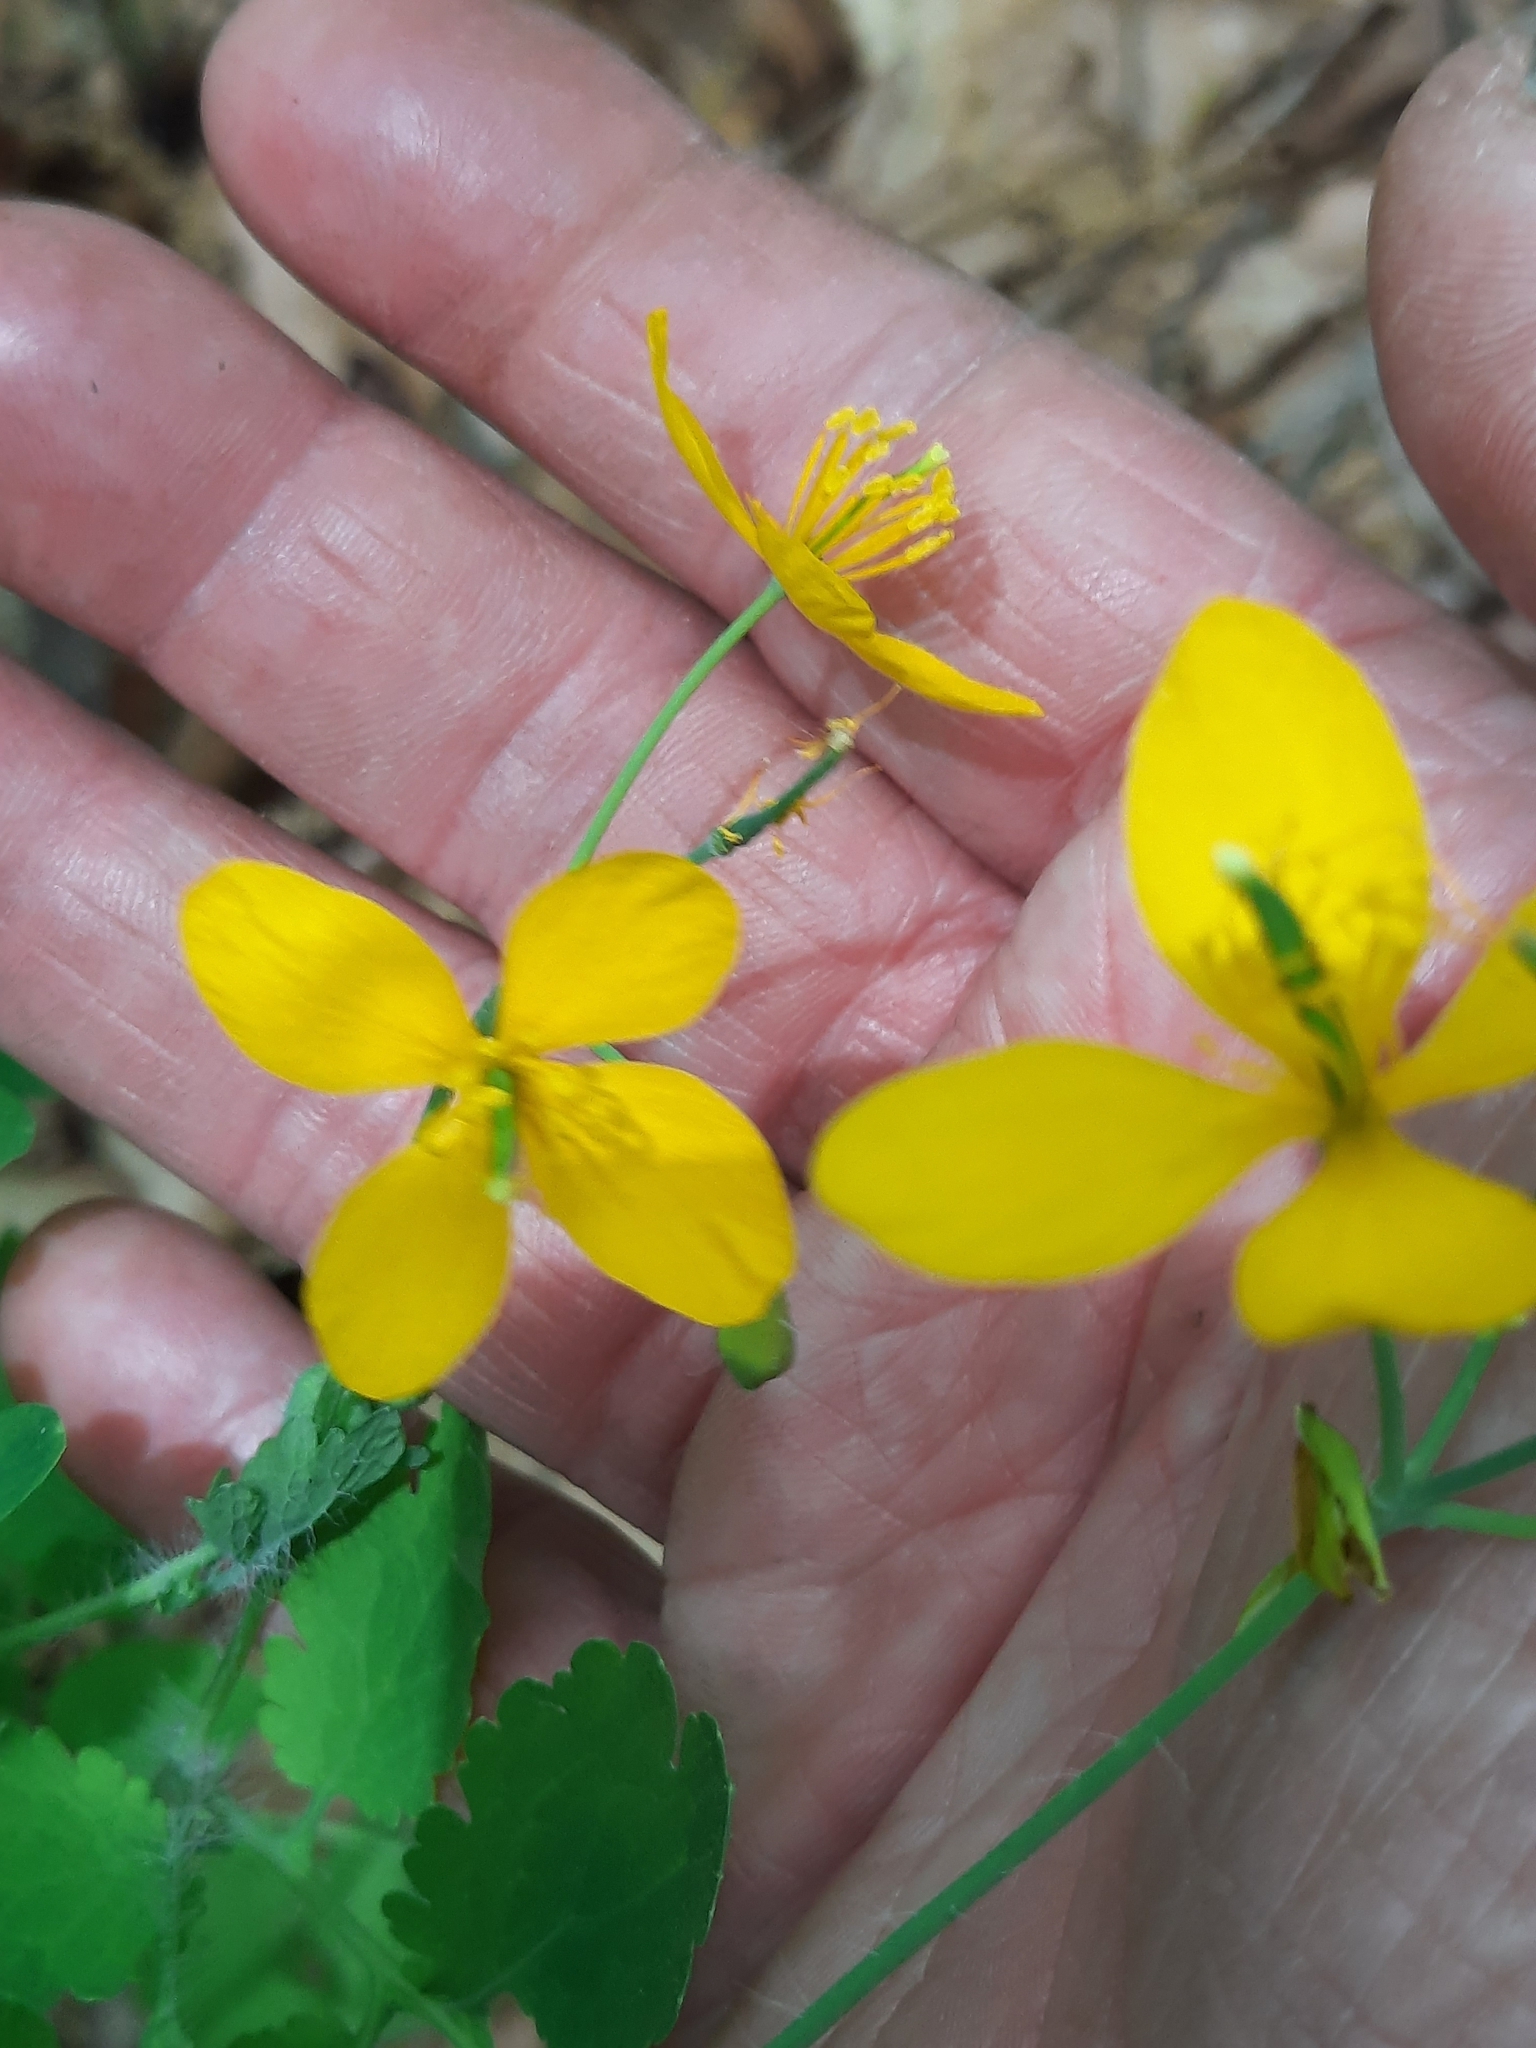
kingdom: Plantae
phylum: Tracheophyta
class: Magnoliopsida
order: Ranunculales
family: Papaveraceae
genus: Chelidonium
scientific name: Chelidonium majus
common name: Greater celandine
